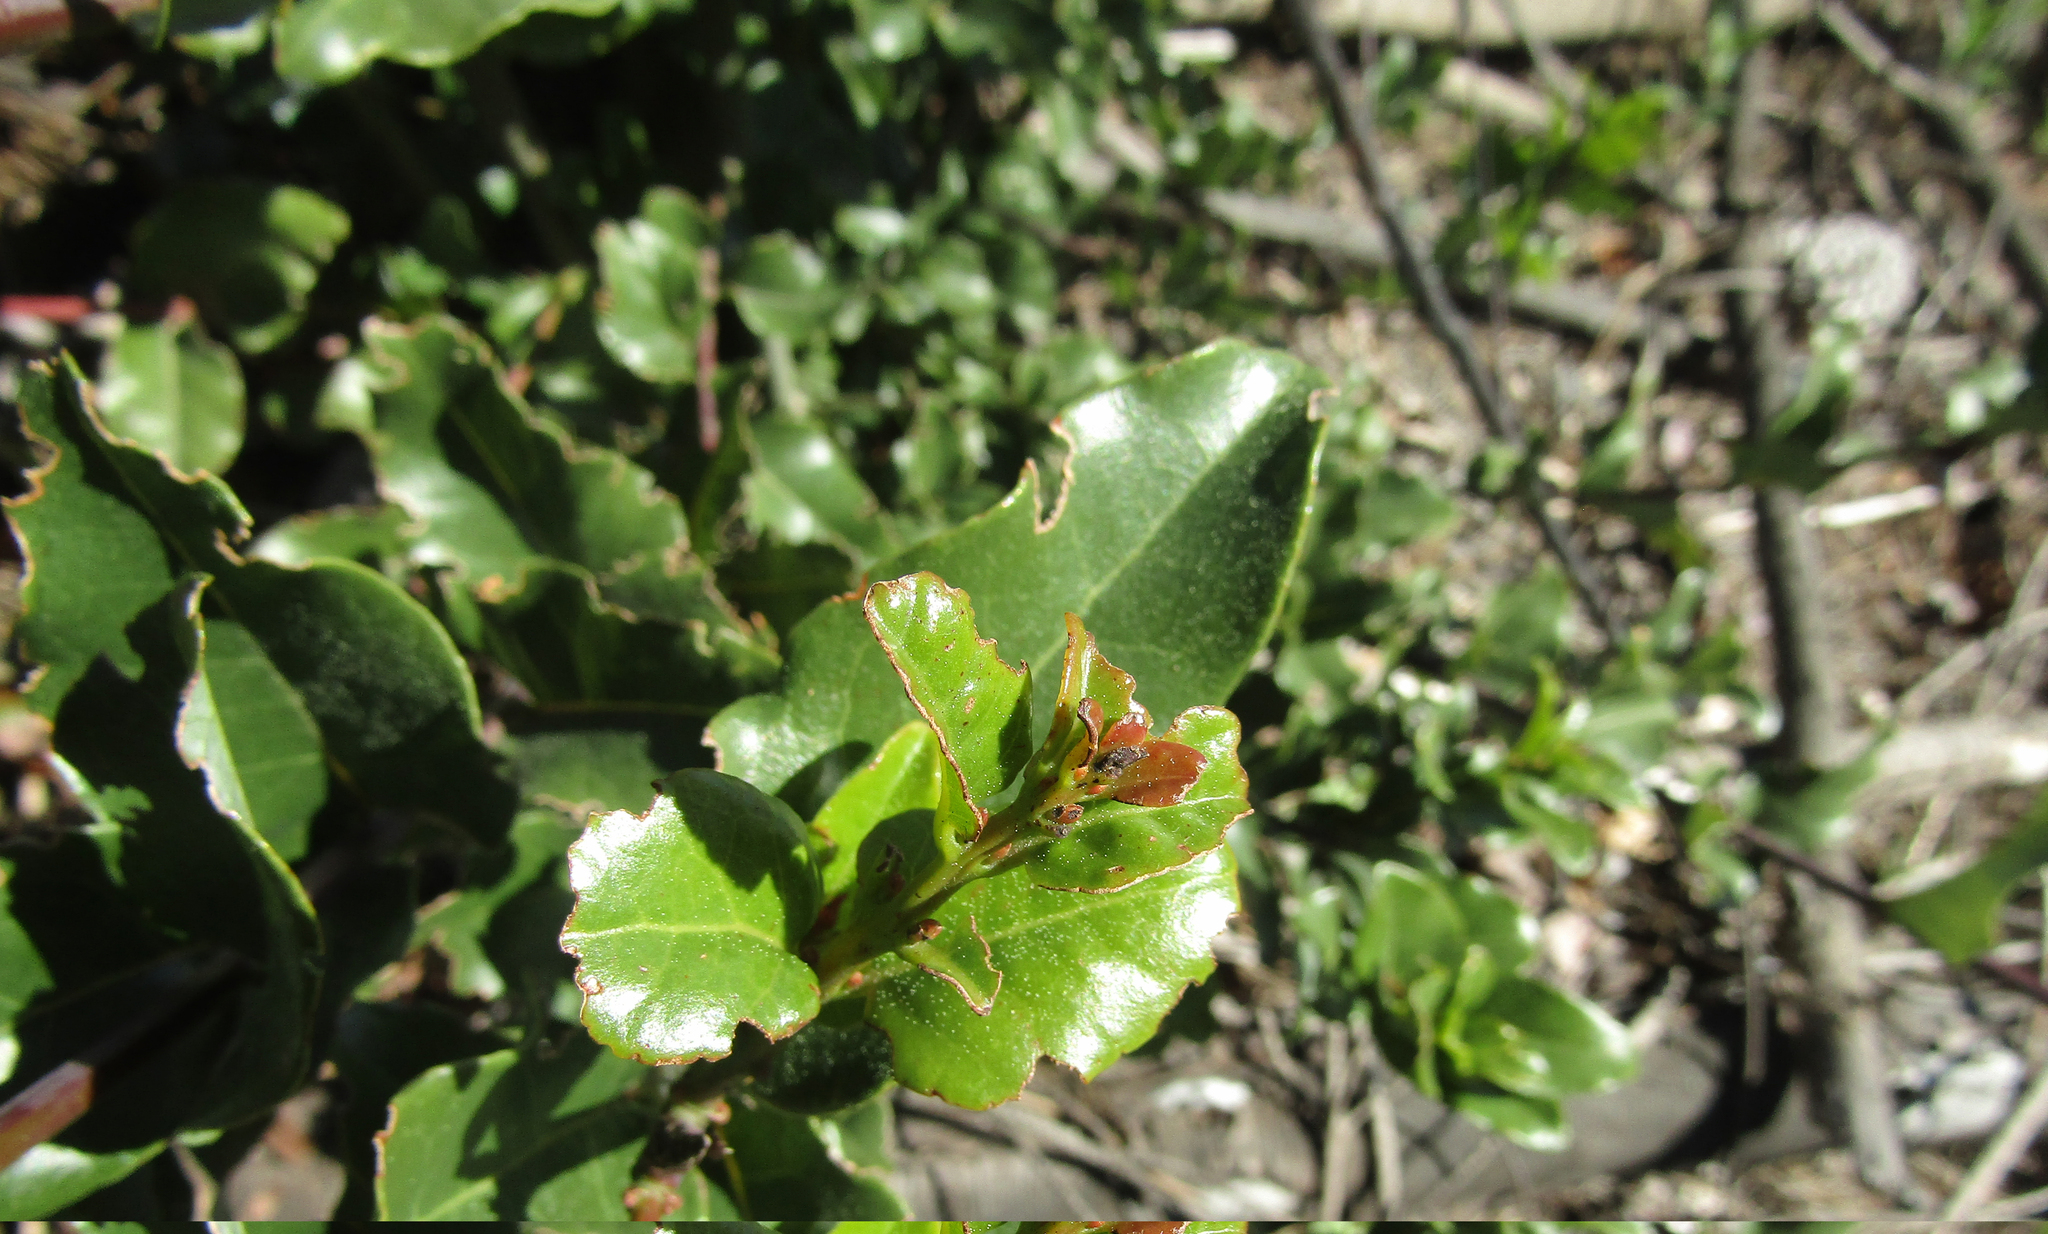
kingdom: Plantae
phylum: Tracheophyta
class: Magnoliopsida
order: Laurales
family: Lauraceae
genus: Cryptocarya
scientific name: Cryptocarya alba
